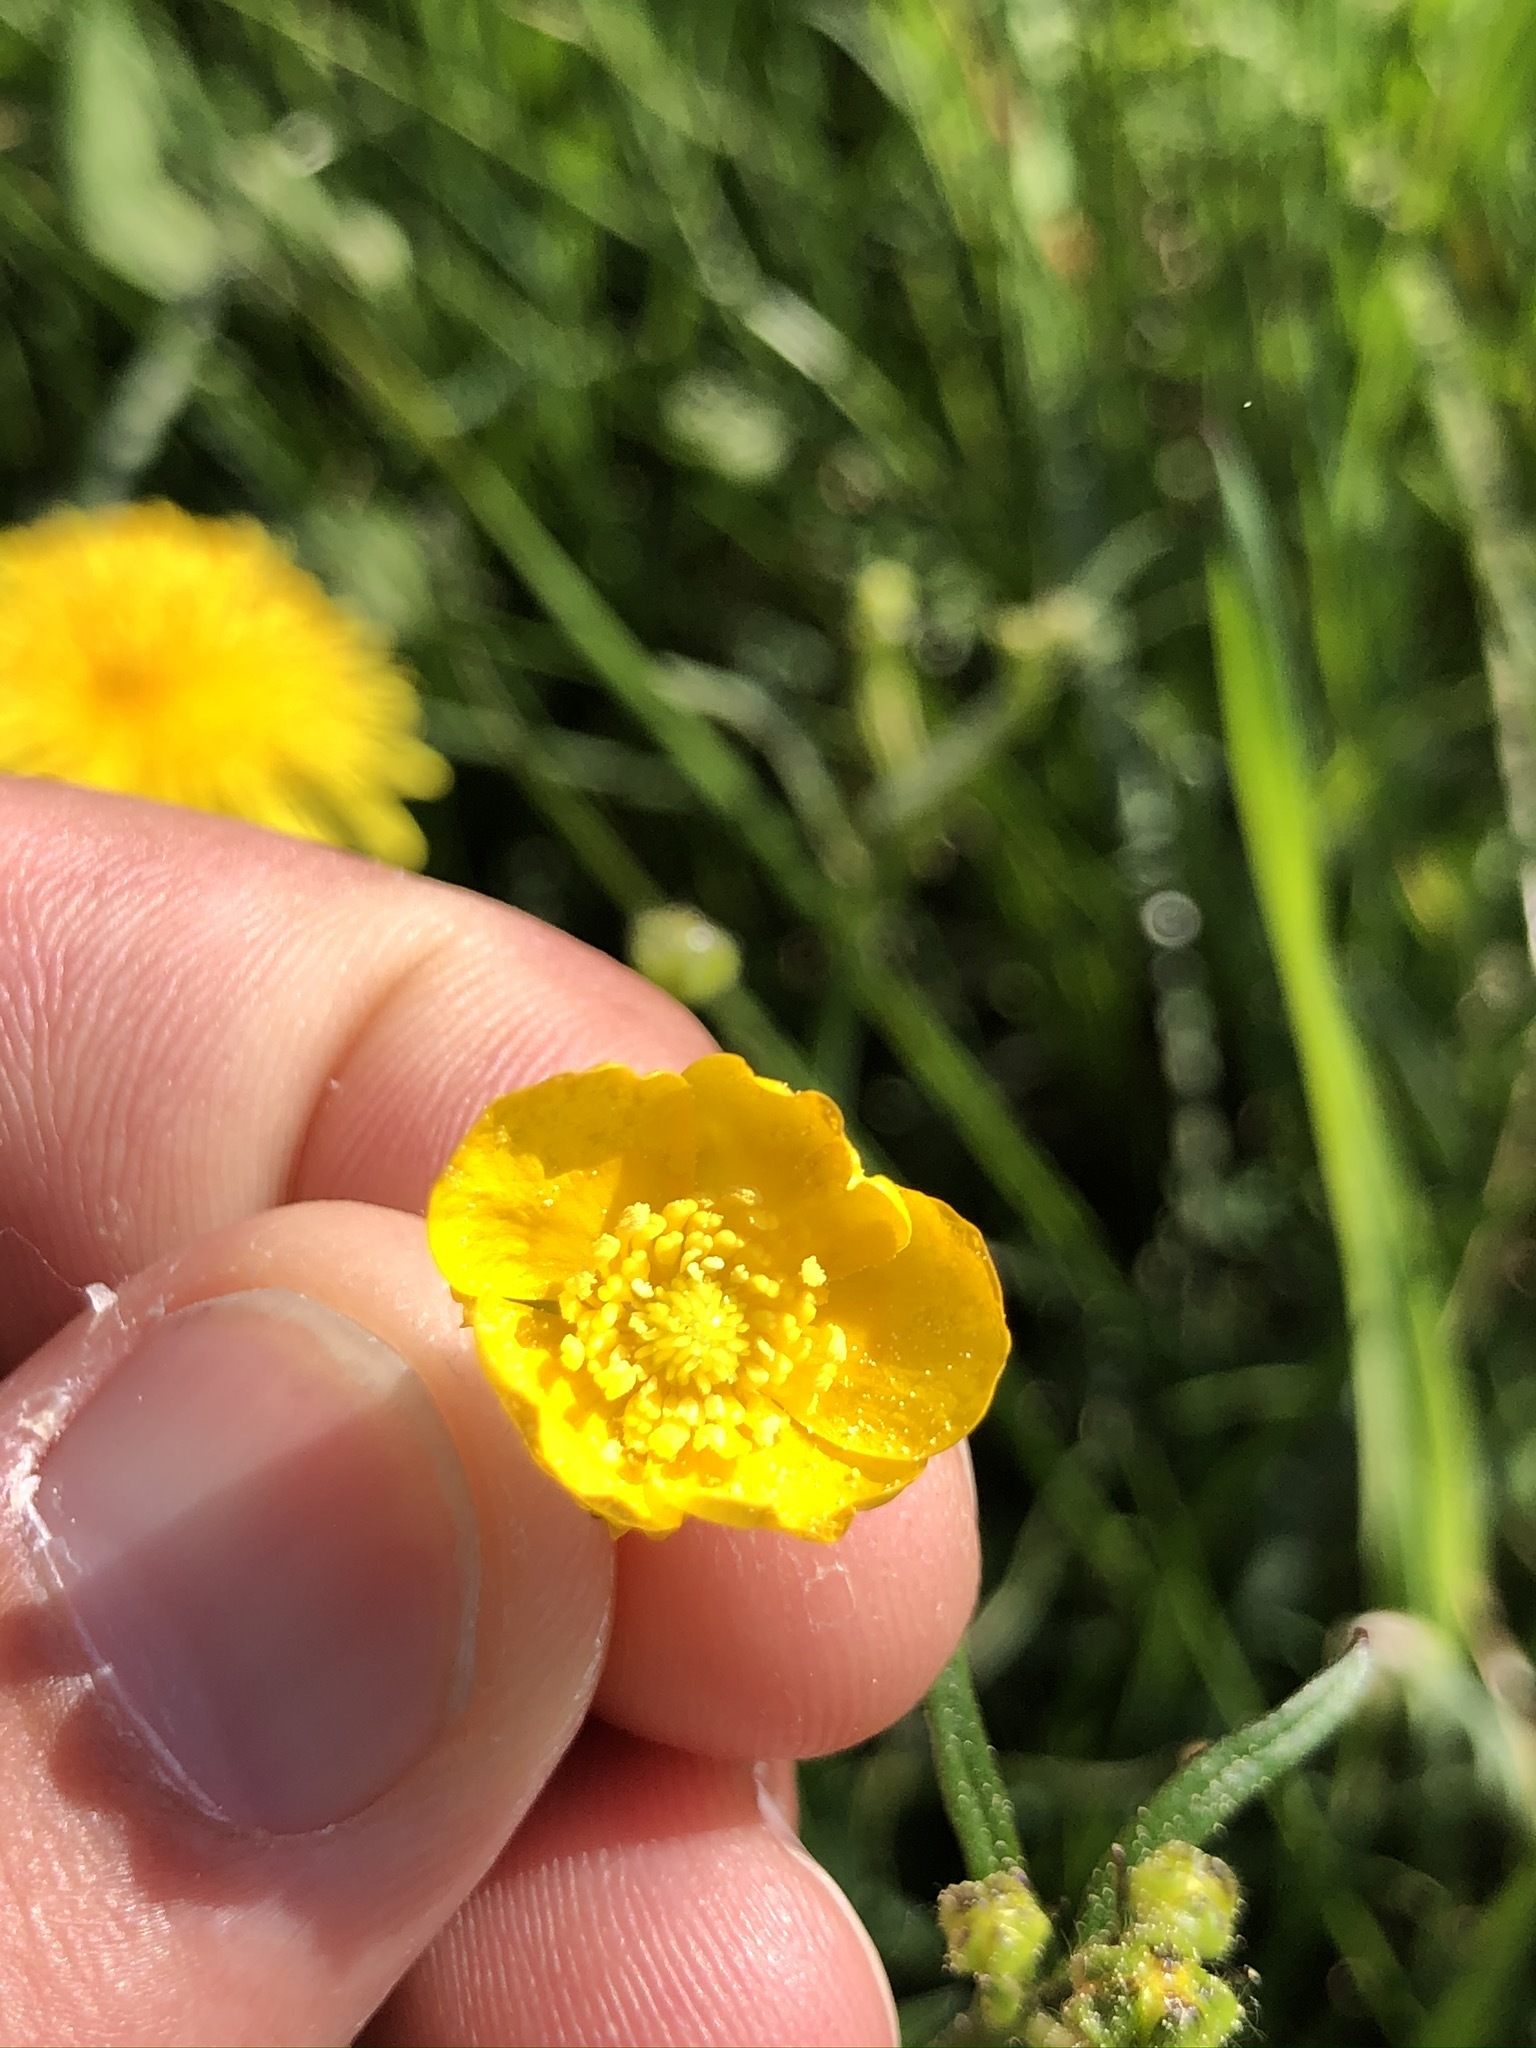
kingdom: Plantae
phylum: Tracheophyta
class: Magnoliopsida
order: Ranunculales
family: Ranunculaceae
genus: Ranunculus
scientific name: Ranunculus acris
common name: Meadow buttercup
